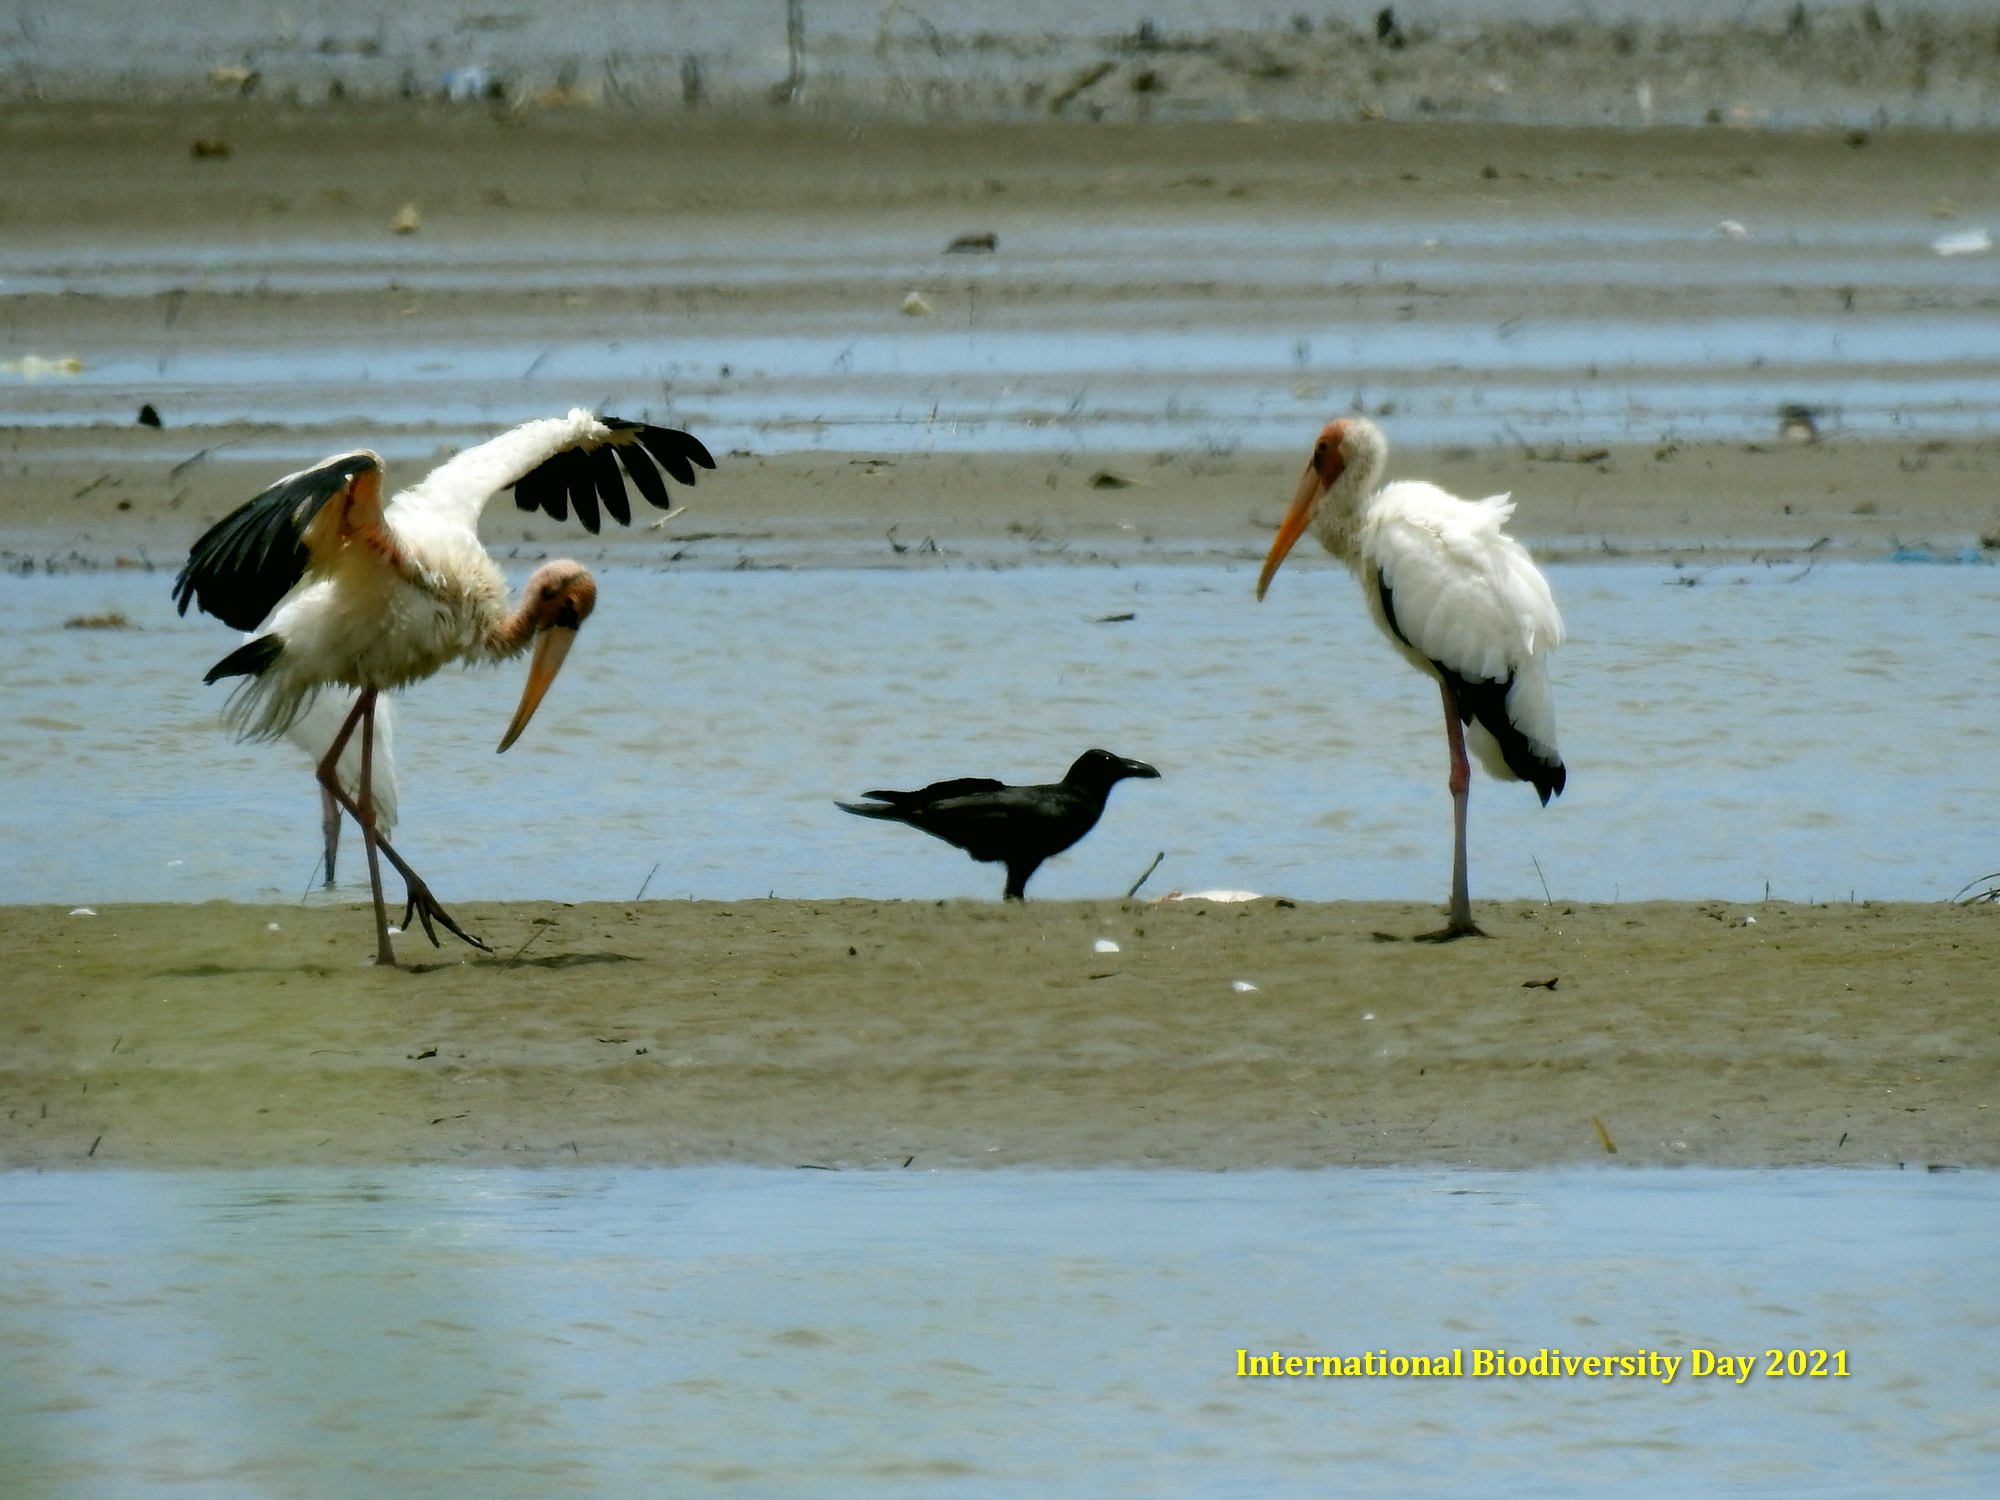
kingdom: Animalia
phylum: Chordata
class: Aves
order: Ciconiiformes
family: Ciconiidae
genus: Mycteria
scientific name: Mycteria cinerea
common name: Milky stork
